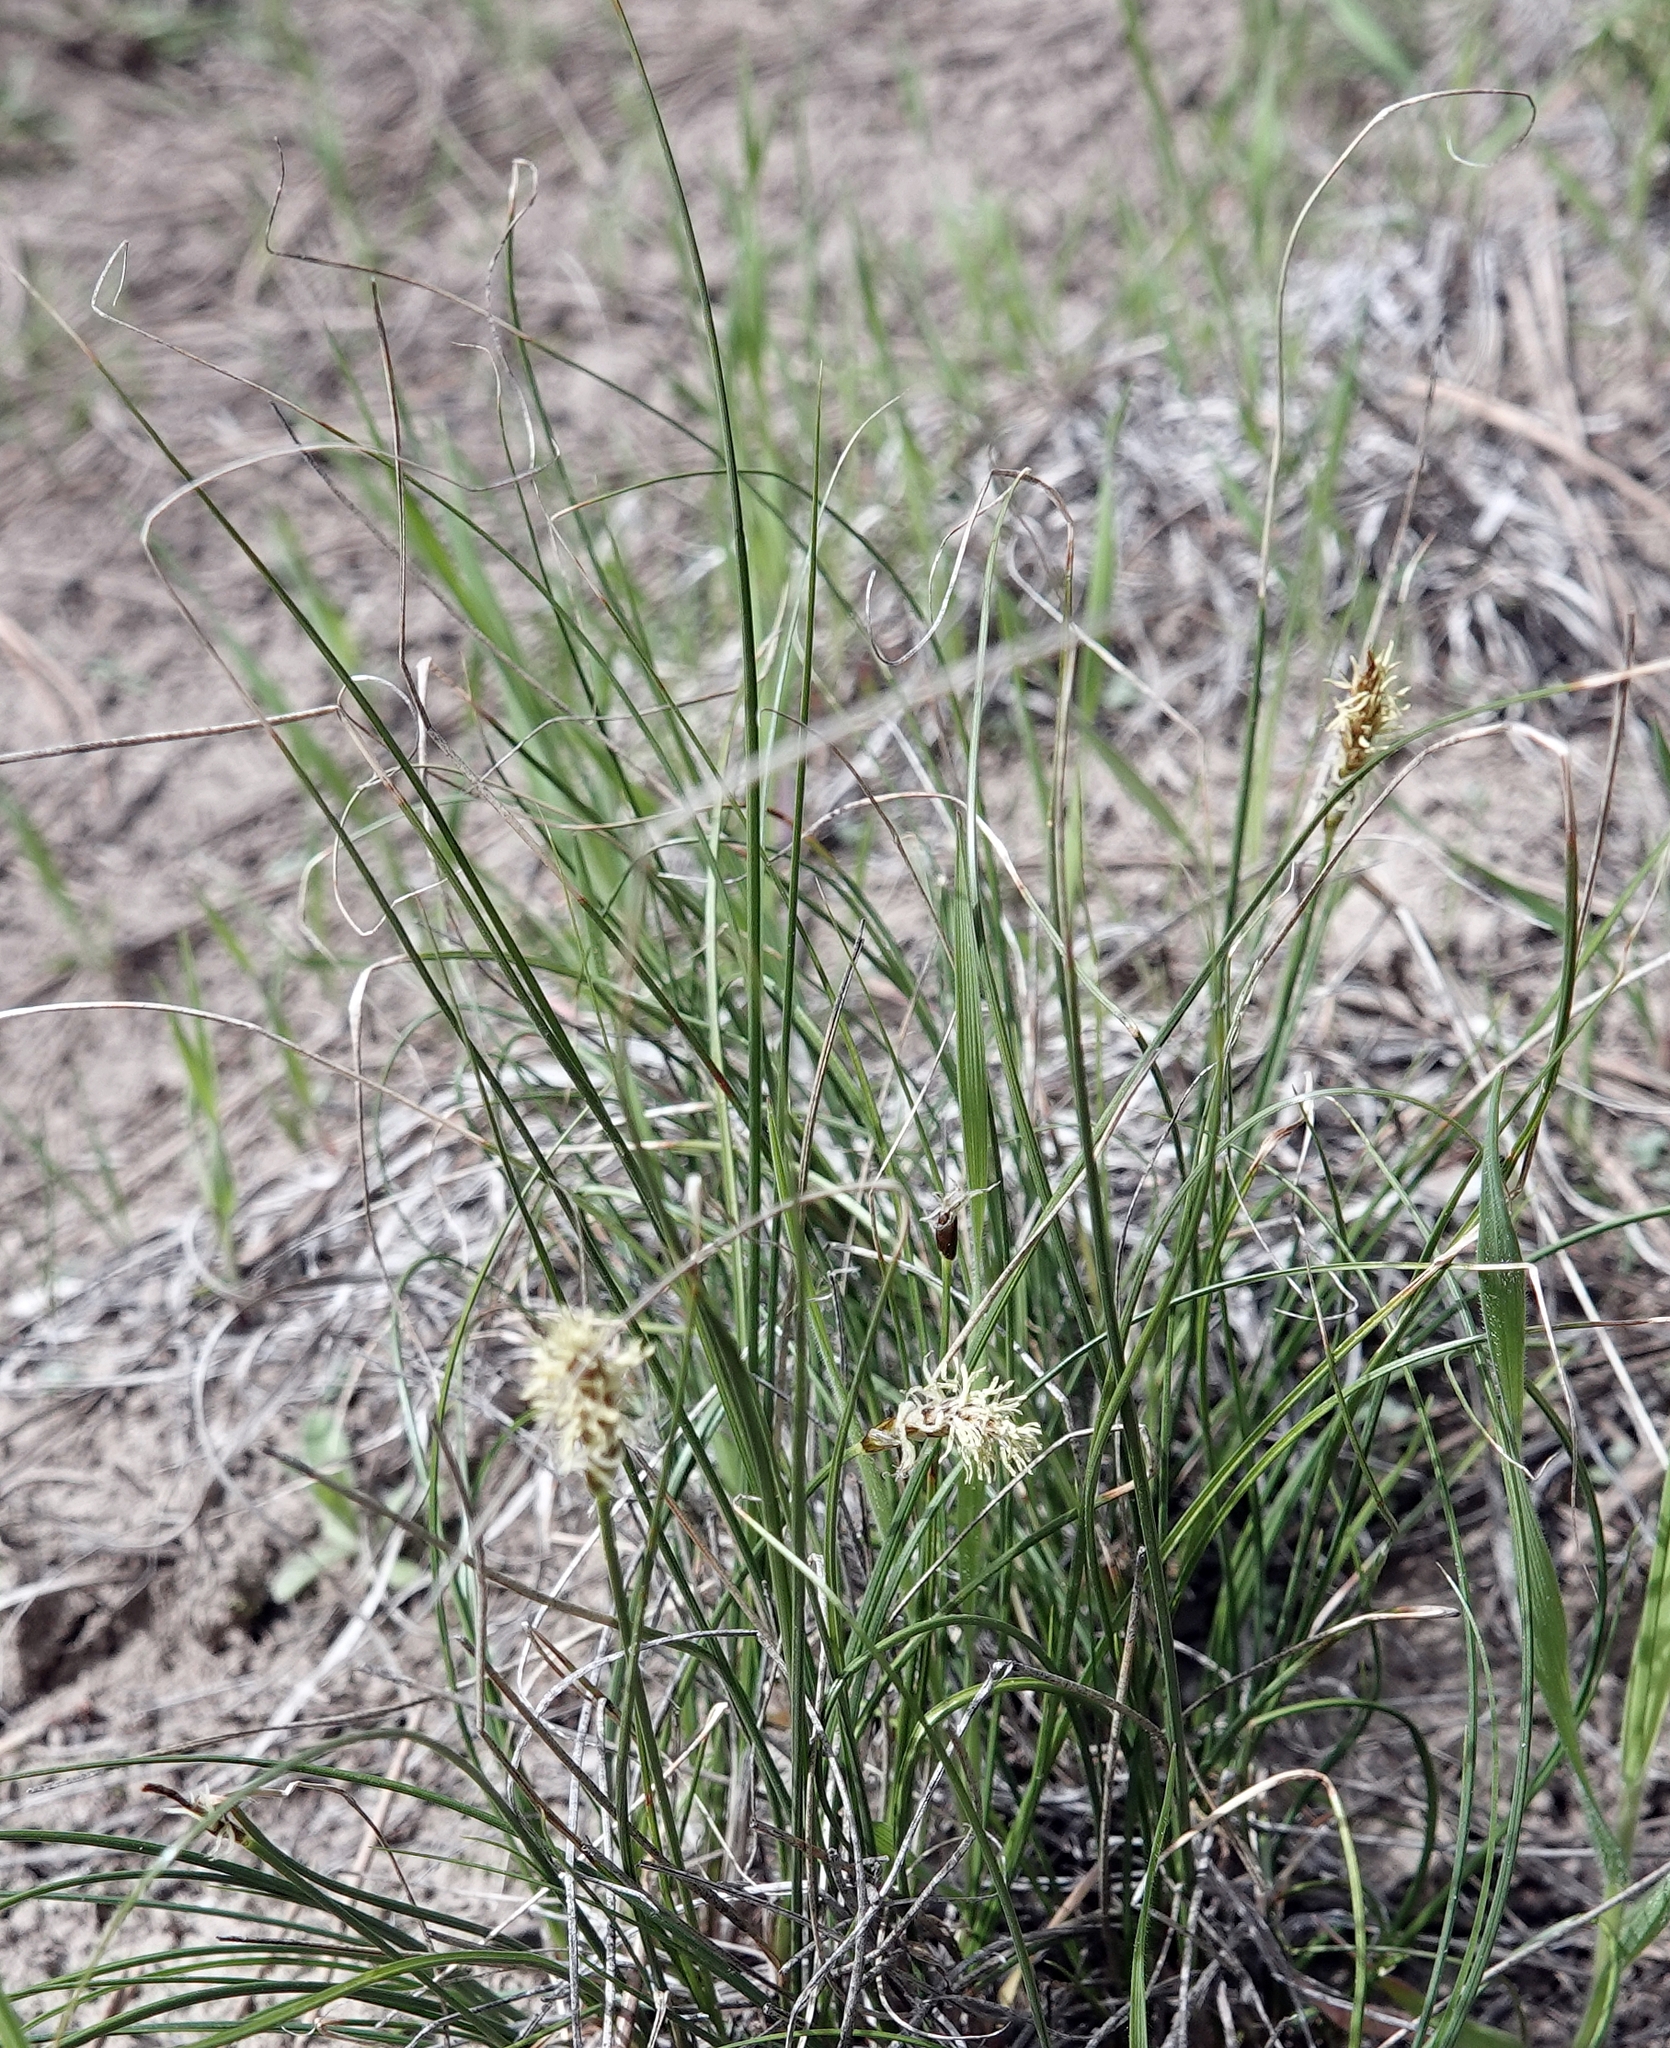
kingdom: Plantae
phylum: Tracheophyta
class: Liliopsida
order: Poales
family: Cyperaceae
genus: Carex
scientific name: Carex filifolia
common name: Threadleaf sedge
